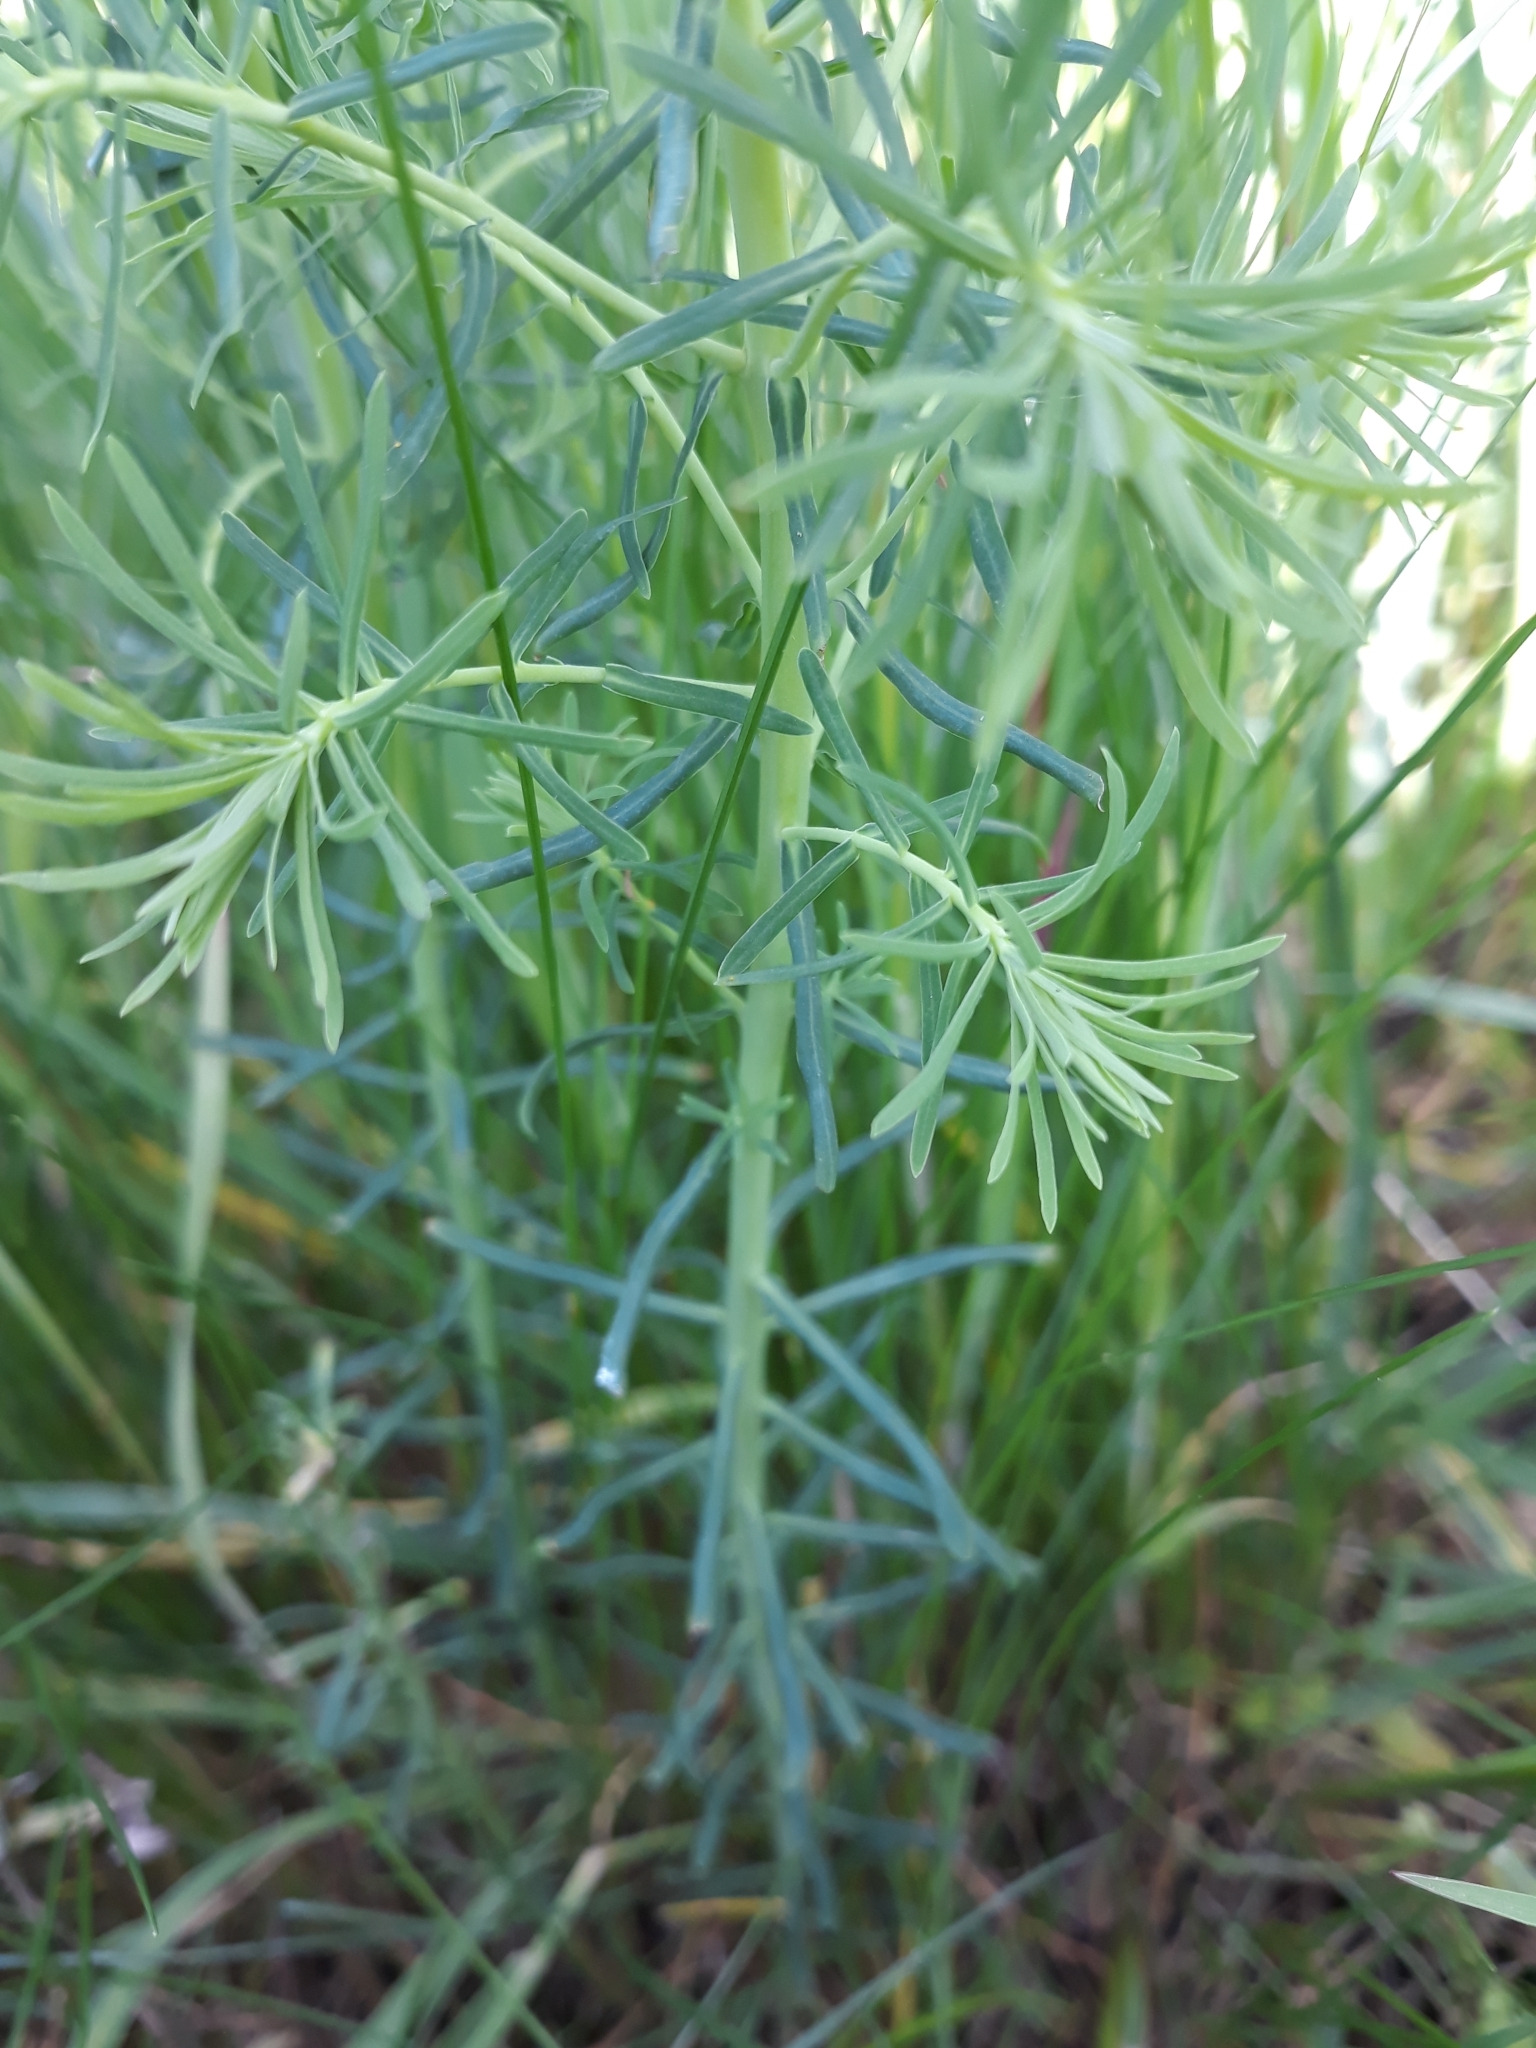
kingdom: Plantae
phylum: Tracheophyta
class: Magnoliopsida
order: Malpighiales
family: Euphorbiaceae
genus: Euphorbia
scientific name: Euphorbia cyparissias
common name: Cypress spurge
